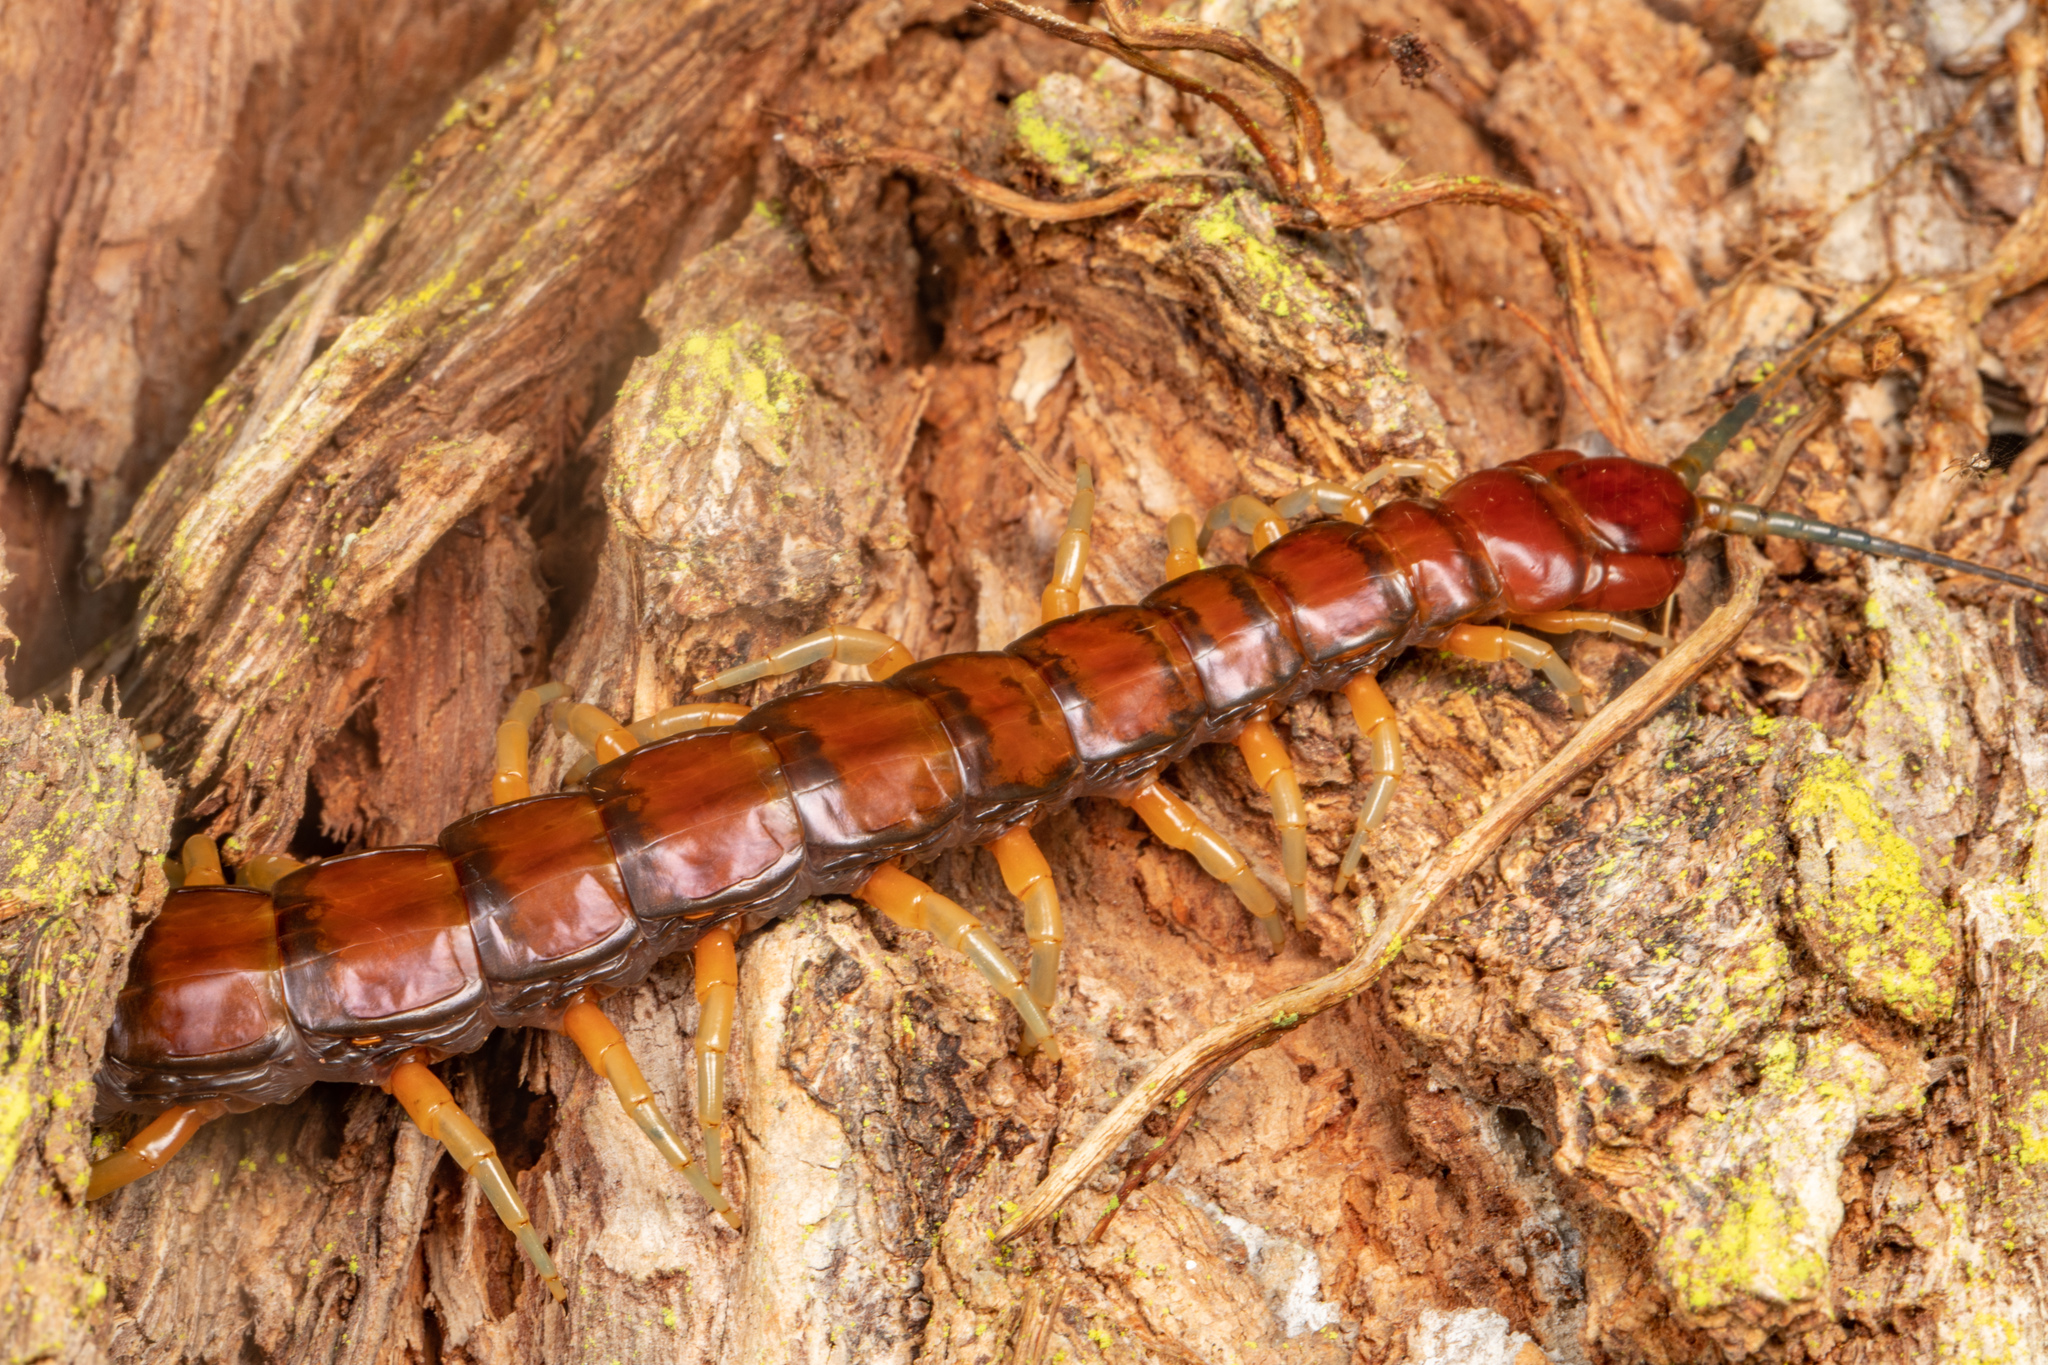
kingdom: Animalia
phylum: Arthropoda
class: Chilopoda
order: Scolopendromorpha
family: Scolopendridae
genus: Cormocephalus
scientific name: Cormocephalus rubriceps
